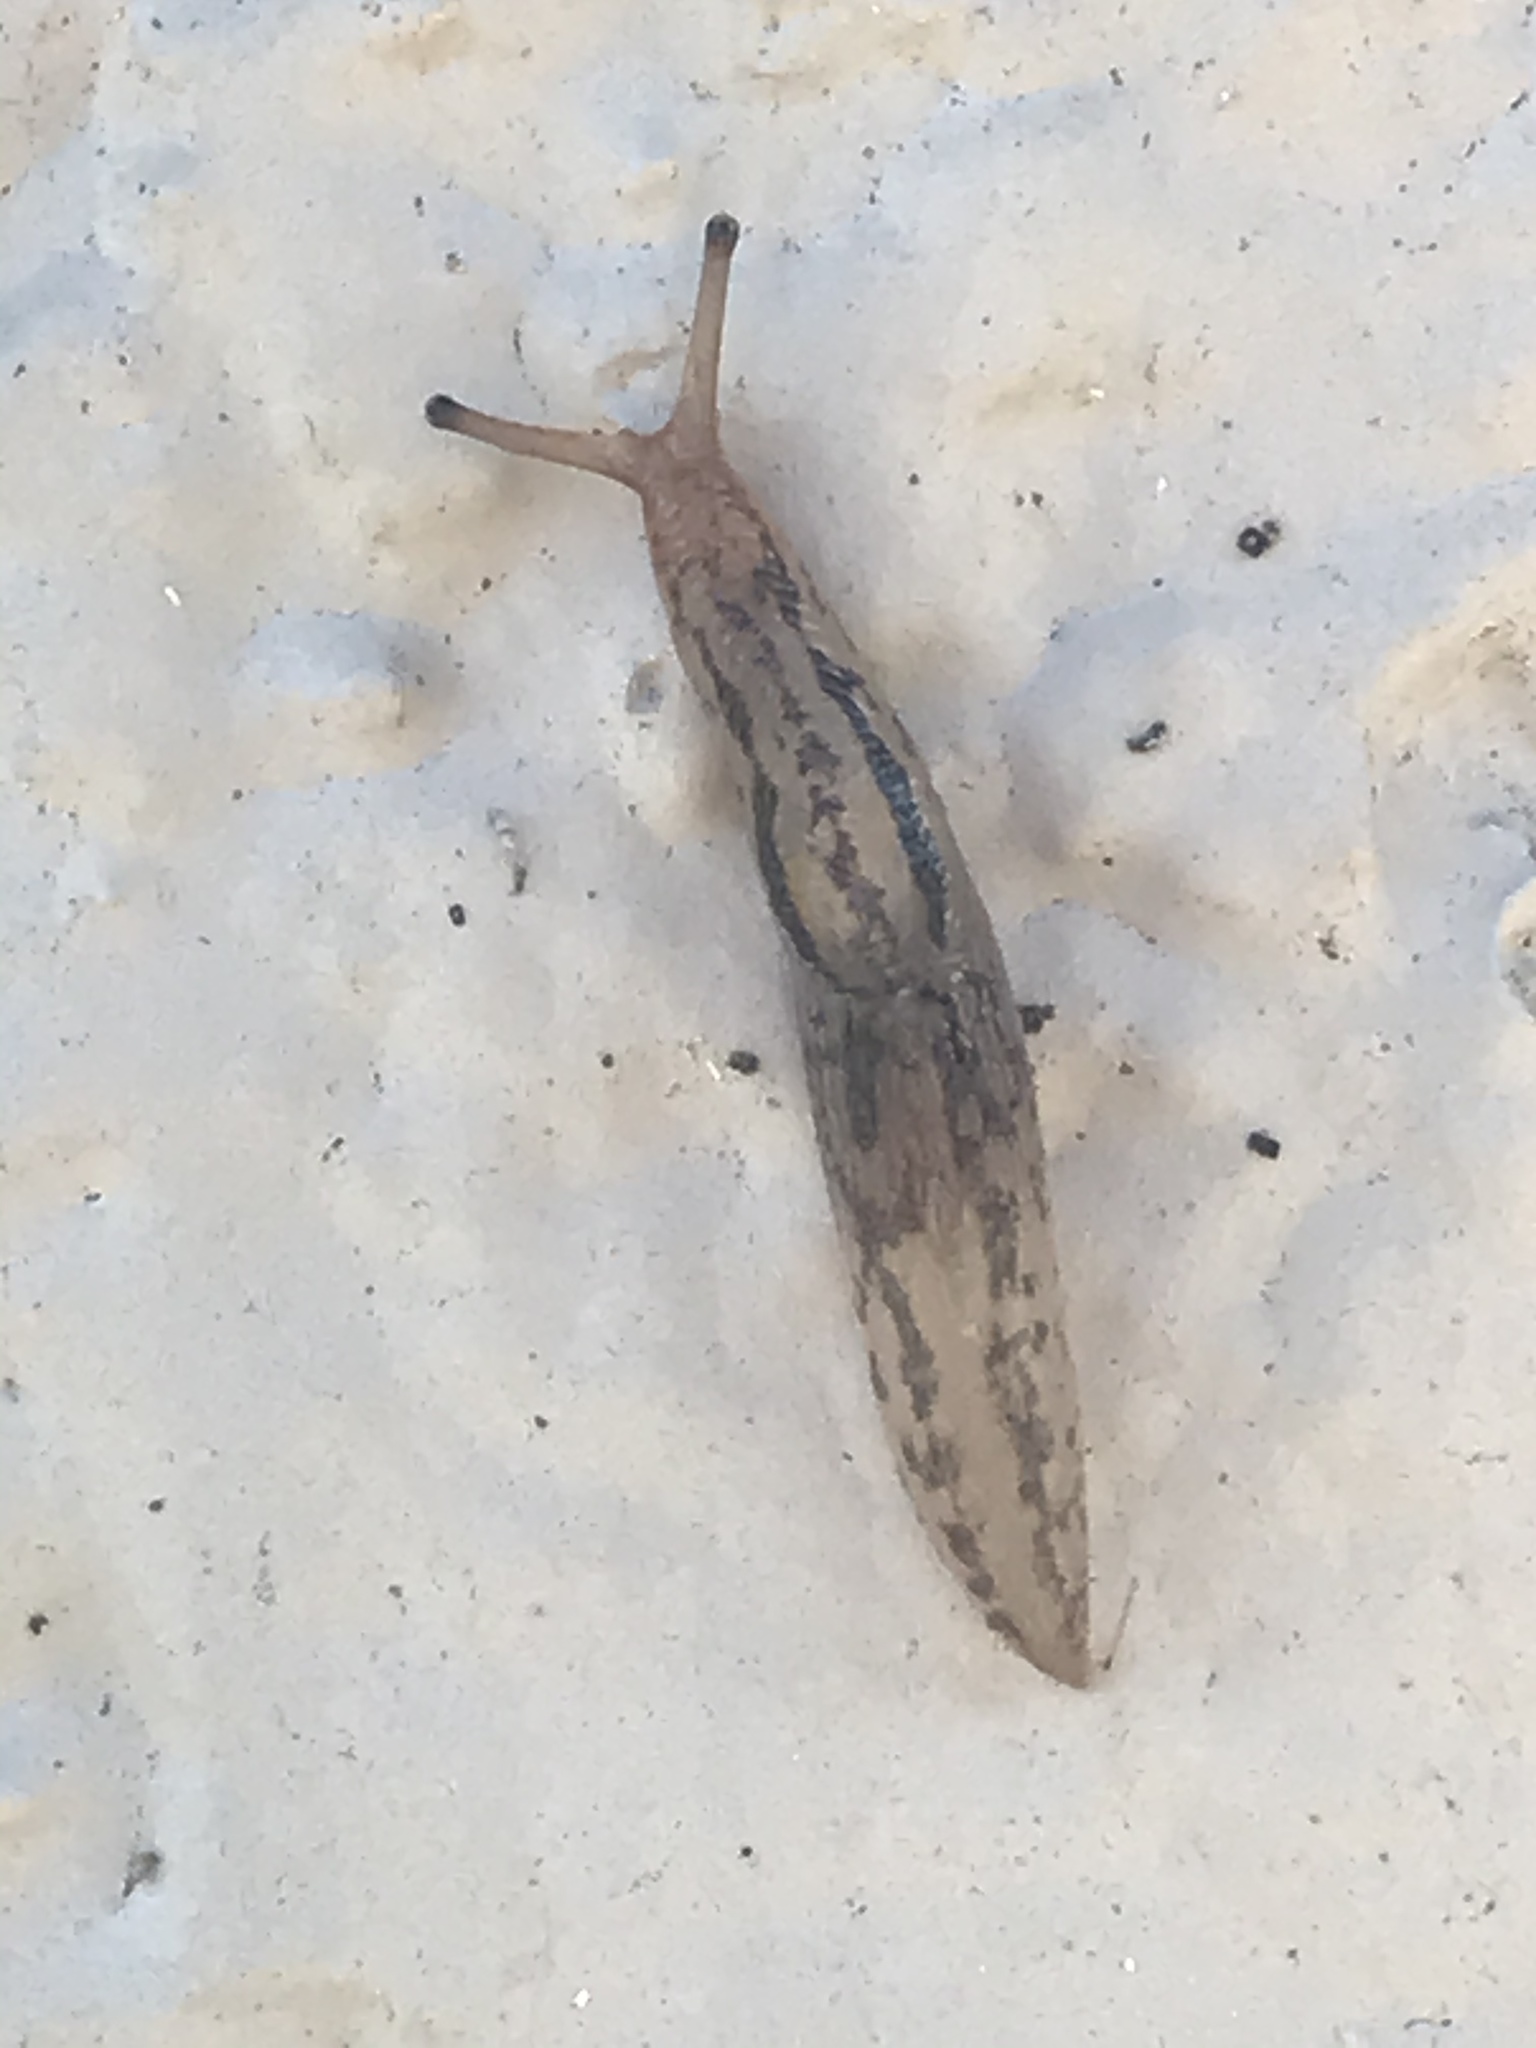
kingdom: Animalia
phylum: Mollusca
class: Gastropoda
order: Stylommatophora
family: Limacidae
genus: Ambigolimax
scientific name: Ambigolimax
